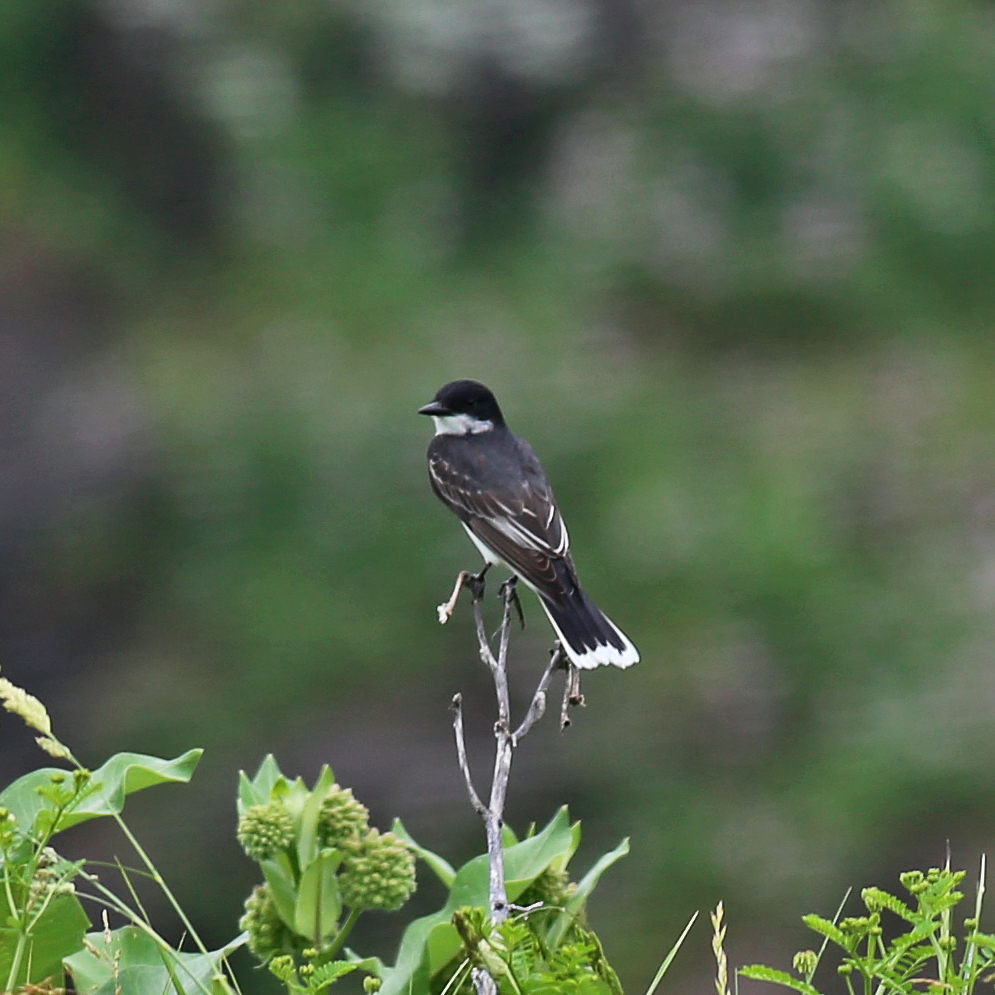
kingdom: Animalia
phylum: Chordata
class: Aves
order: Passeriformes
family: Tyrannidae
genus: Tyrannus
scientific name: Tyrannus tyrannus
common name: Eastern kingbird
